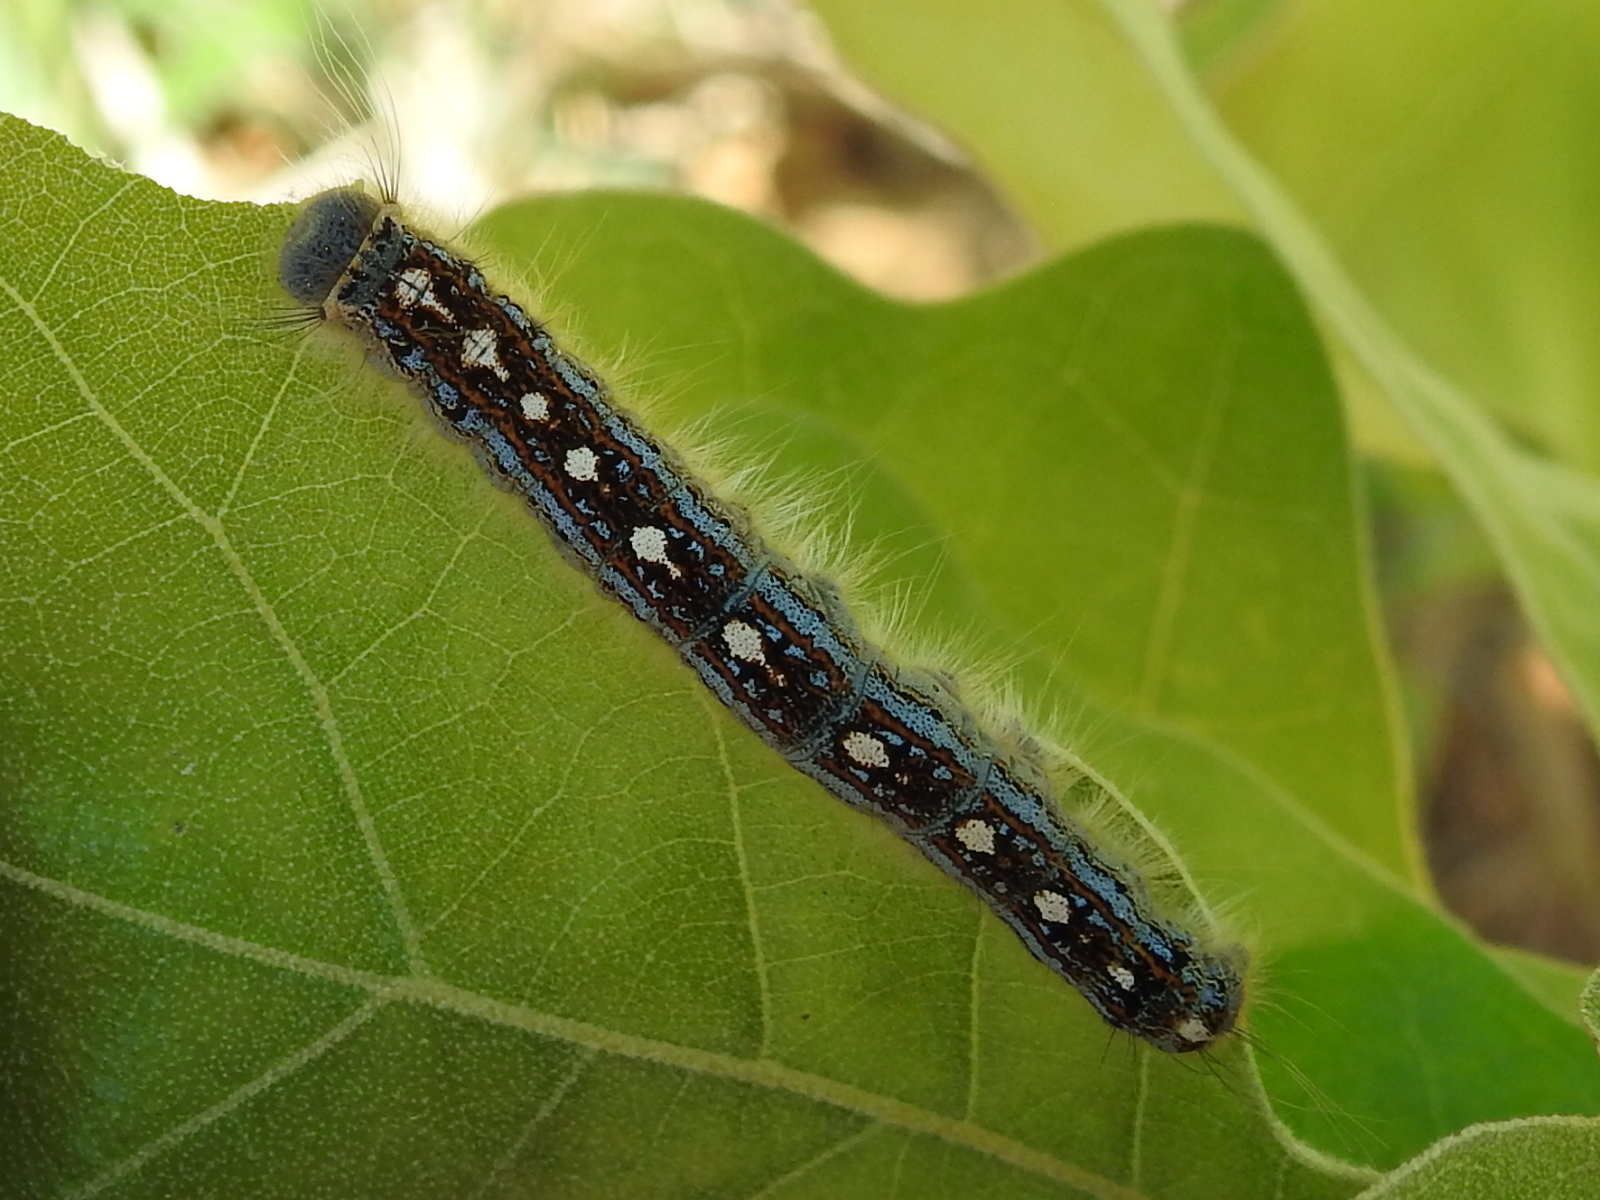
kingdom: Animalia
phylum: Arthropoda
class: Insecta
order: Lepidoptera
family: Lasiocampidae
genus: Malacosoma
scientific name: Malacosoma disstria
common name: Forest tent caterpillar
